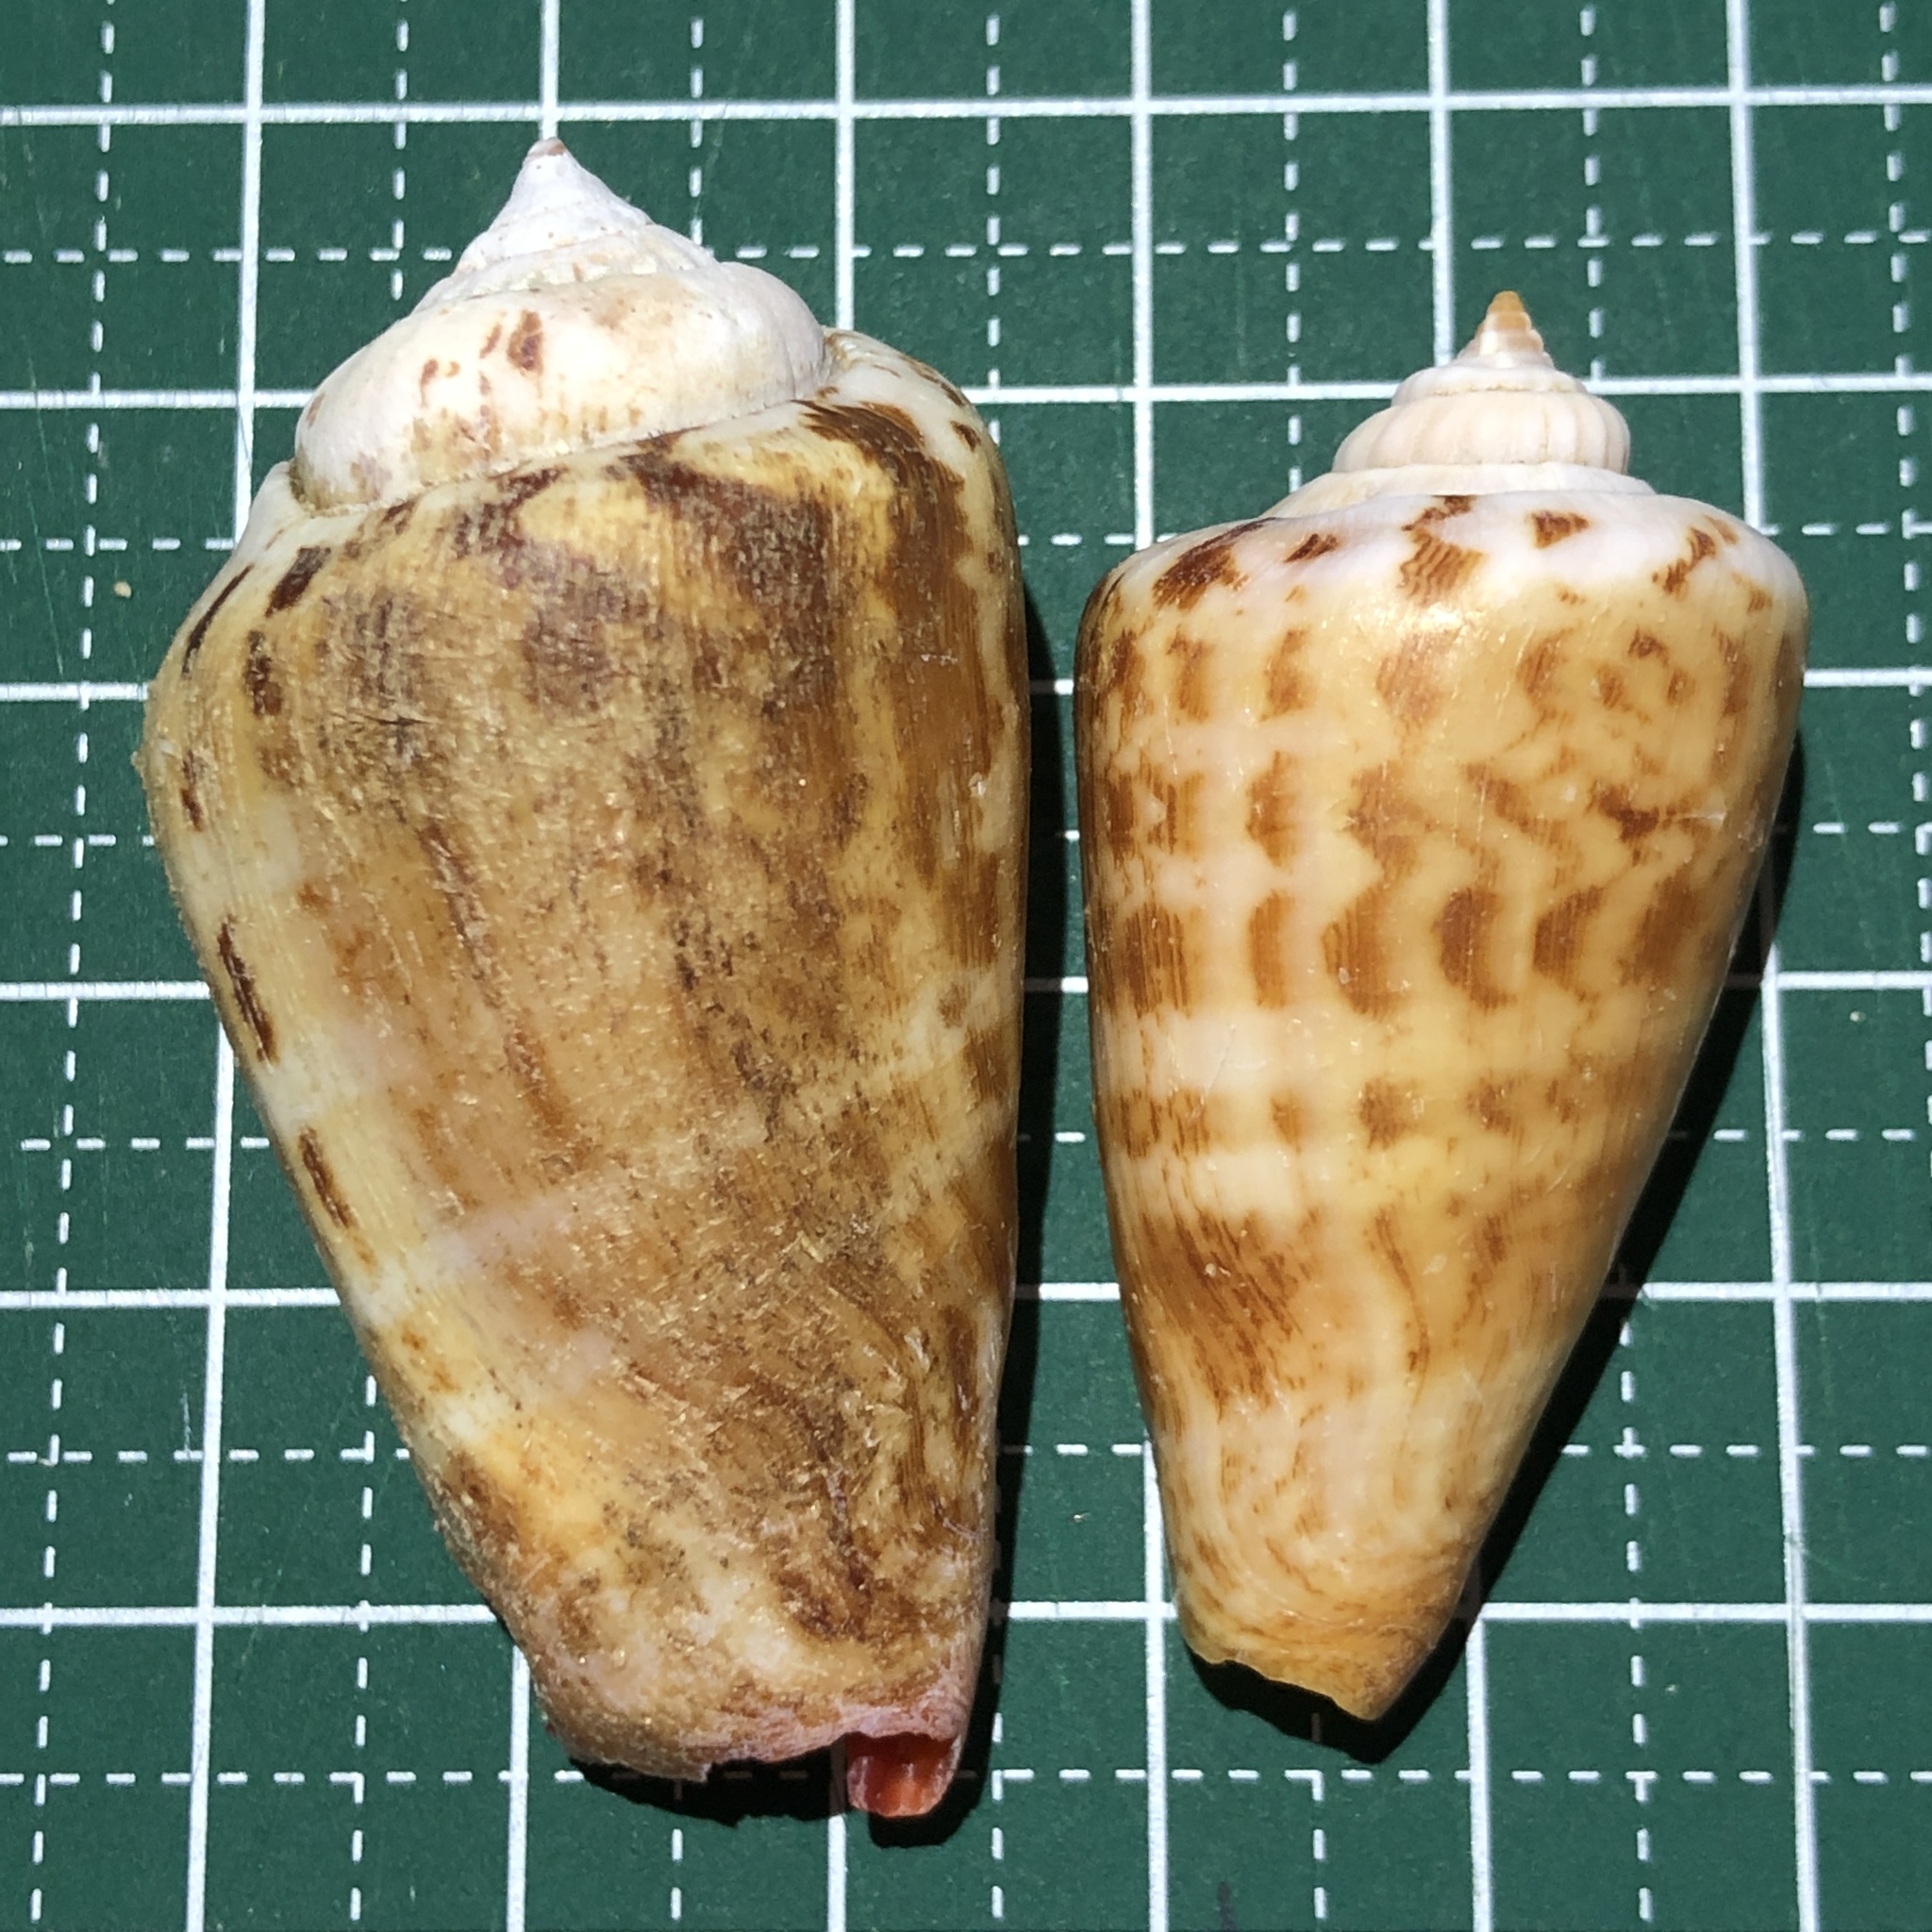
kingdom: Animalia
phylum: Mollusca
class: Gastropoda
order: Littorinimorpha
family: Strombidae
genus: Conomurex
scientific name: Conomurex luhuanus
